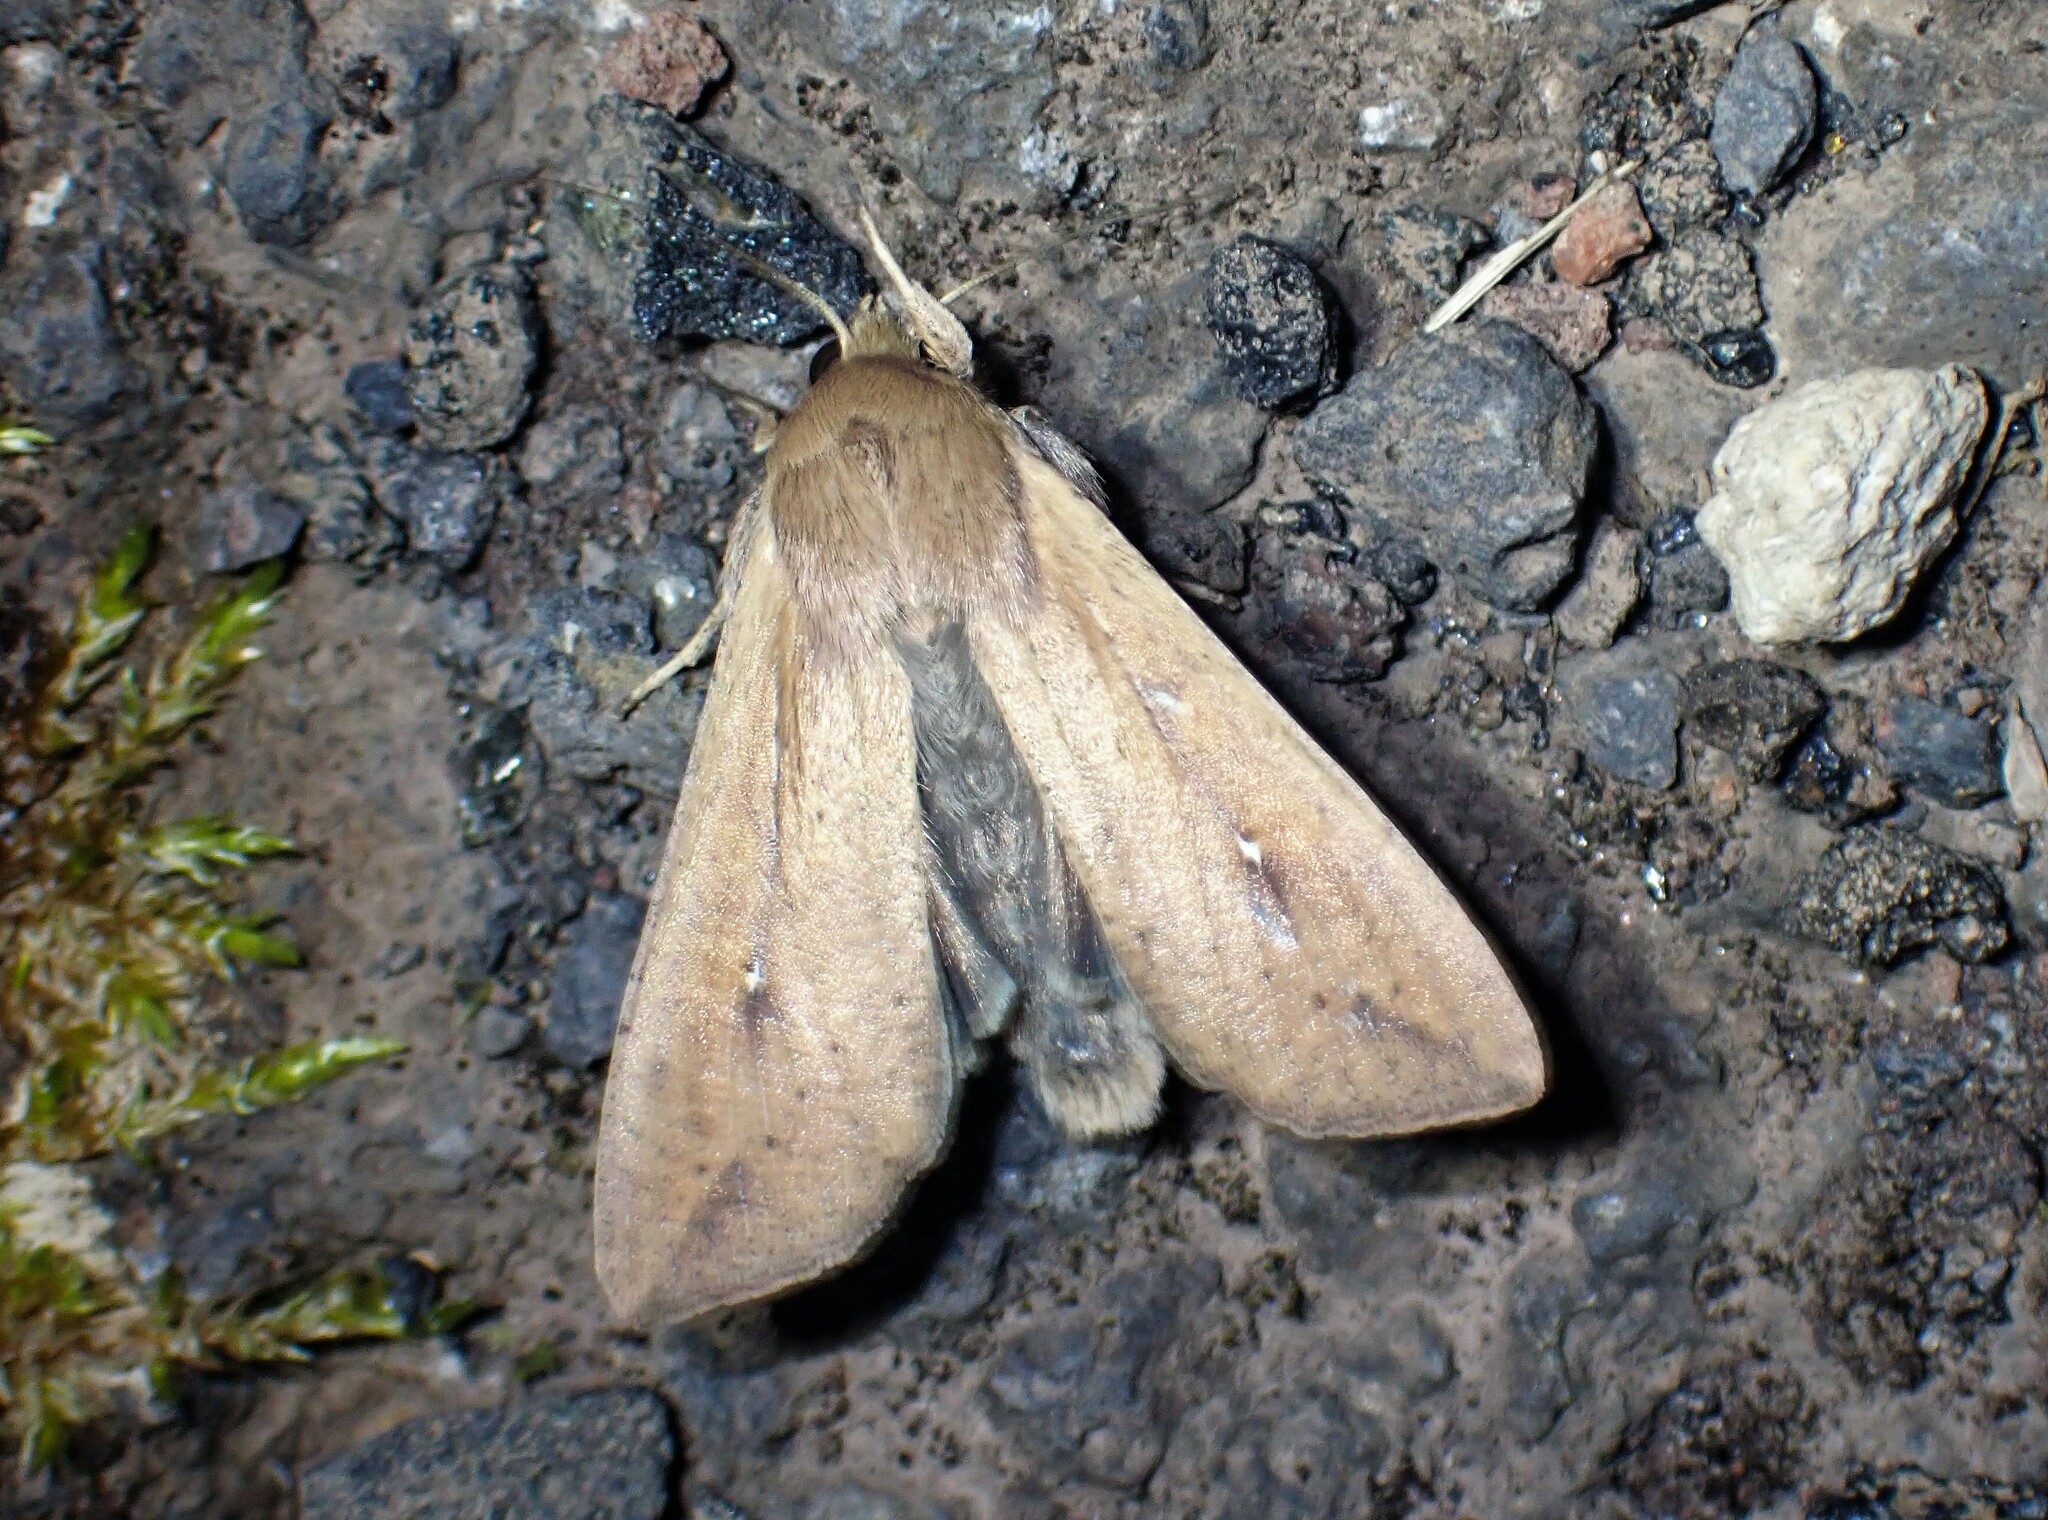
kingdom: Animalia
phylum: Arthropoda
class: Insecta
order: Lepidoptera
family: Noctuidae
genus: Mythimna
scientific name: Mythimna unipuncta
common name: White-speck
